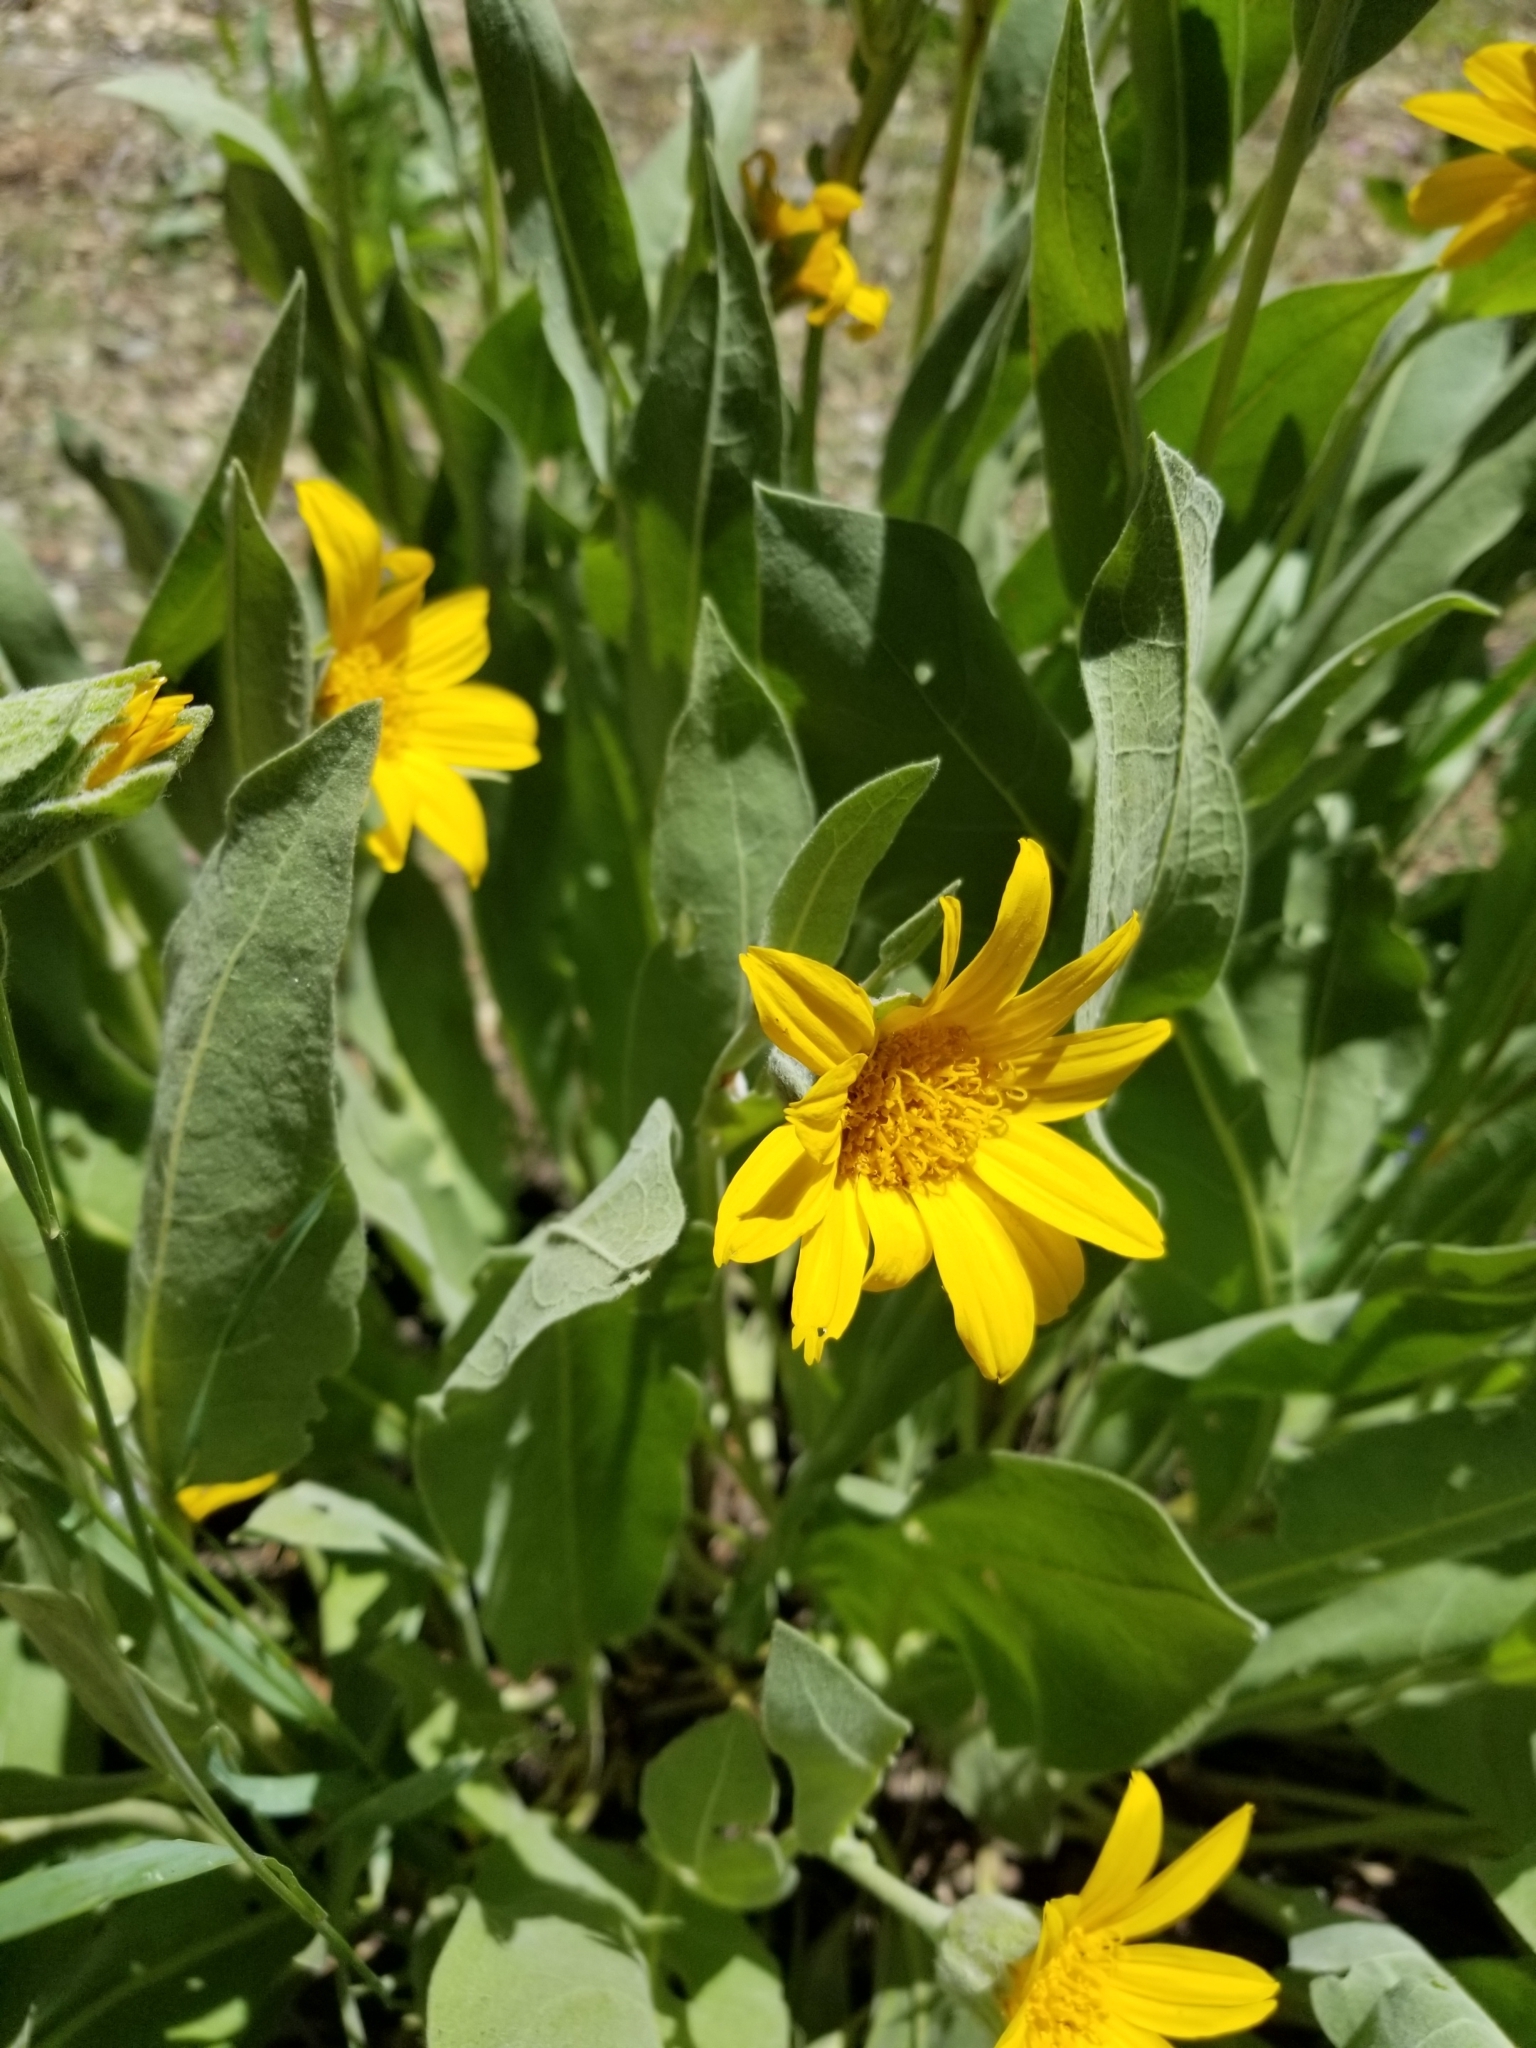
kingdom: Plantae
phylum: Tracheophyta
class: Magnoliopsida
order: Asterales
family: Asteraceae
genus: Wyethia
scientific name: Wyethia mollis
